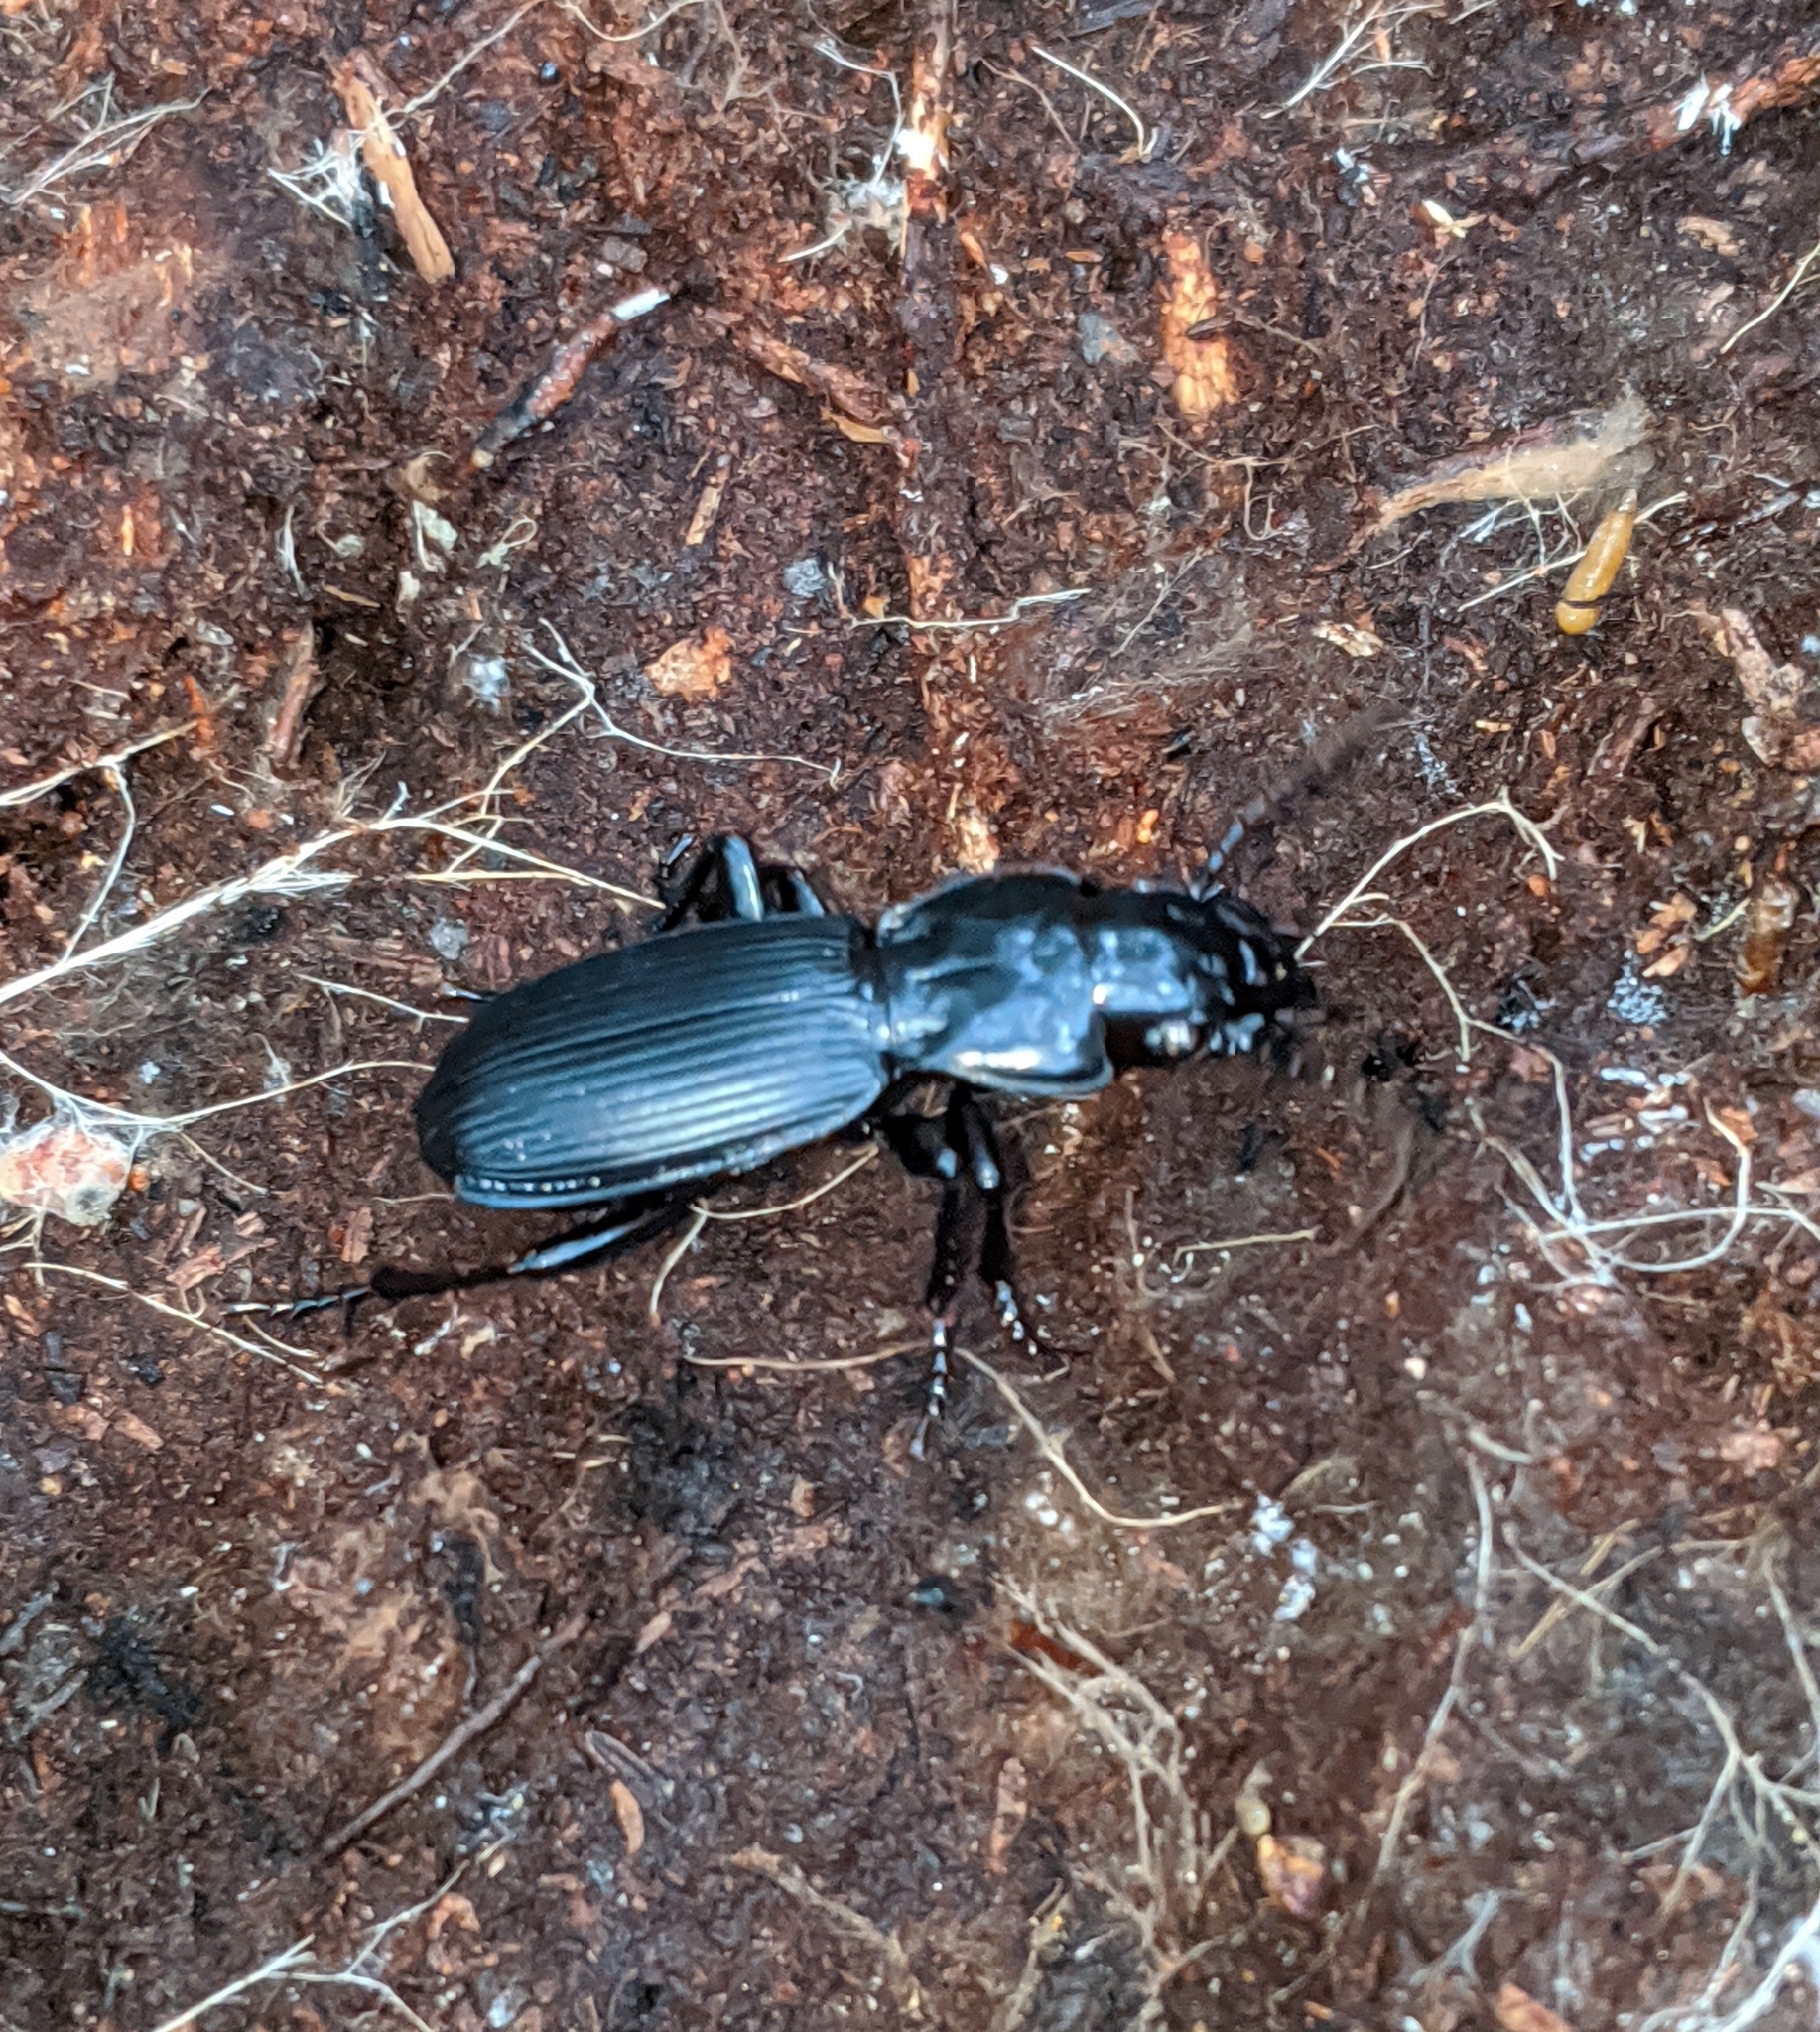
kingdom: Animalia
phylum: Arthropoda
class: Insecta
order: Coleoptera
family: Carabidae
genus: Pterostichus
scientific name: Pterostichus lama
